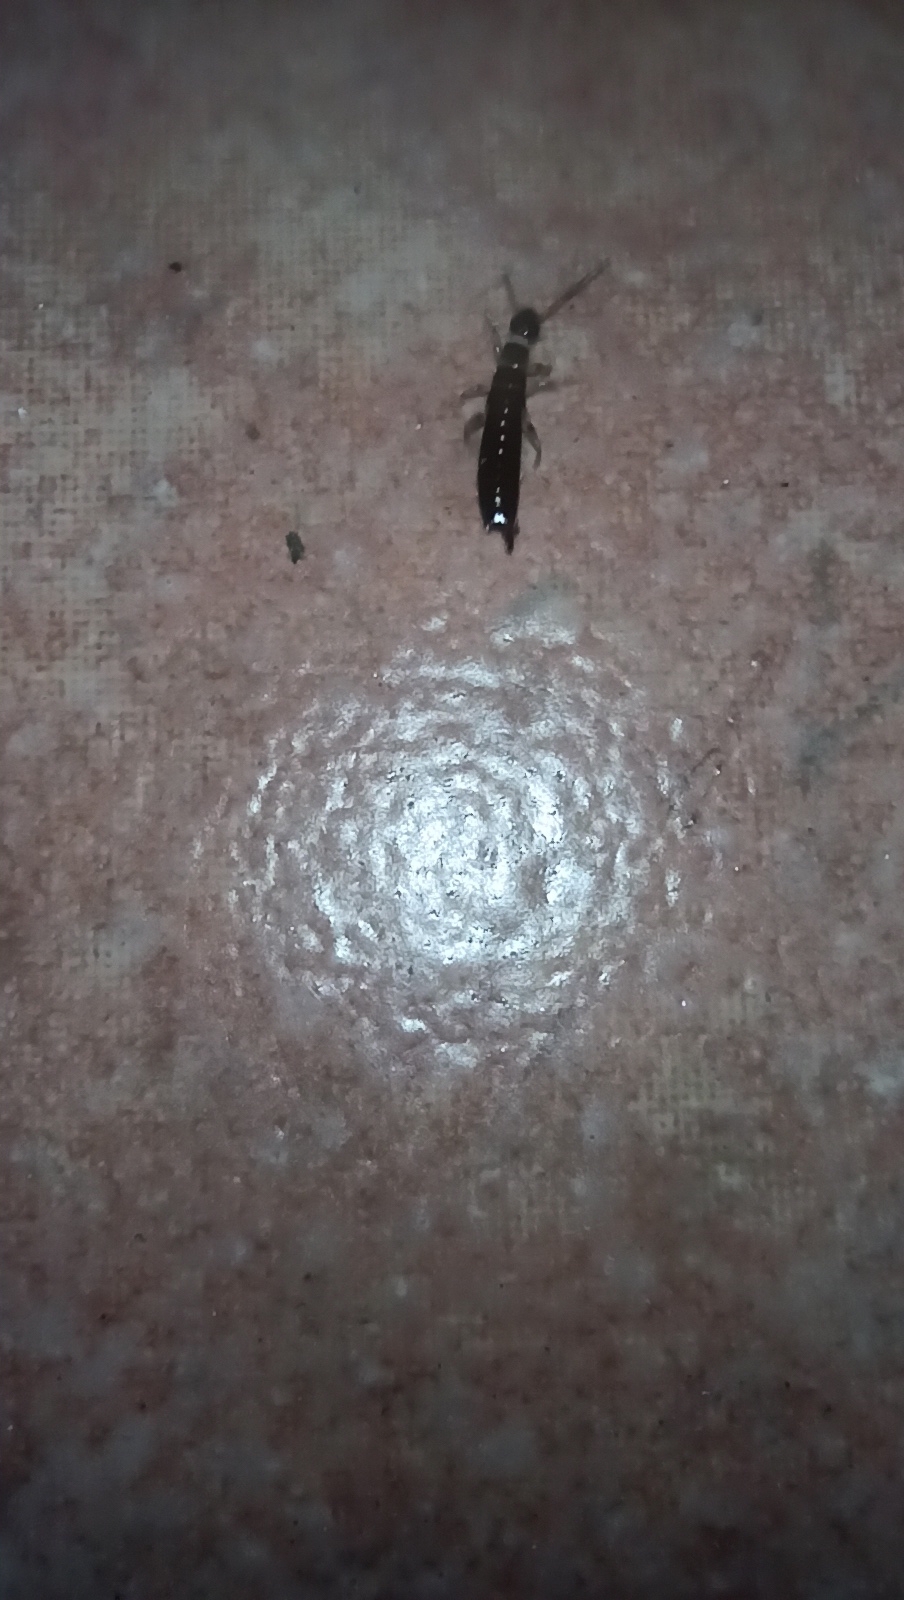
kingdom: Animalia
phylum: Arthropoda
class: Insecta
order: Dermaptera
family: Anisolabididae
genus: Euborellia
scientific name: Euborellia annulipes
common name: Ringlegged earwig
